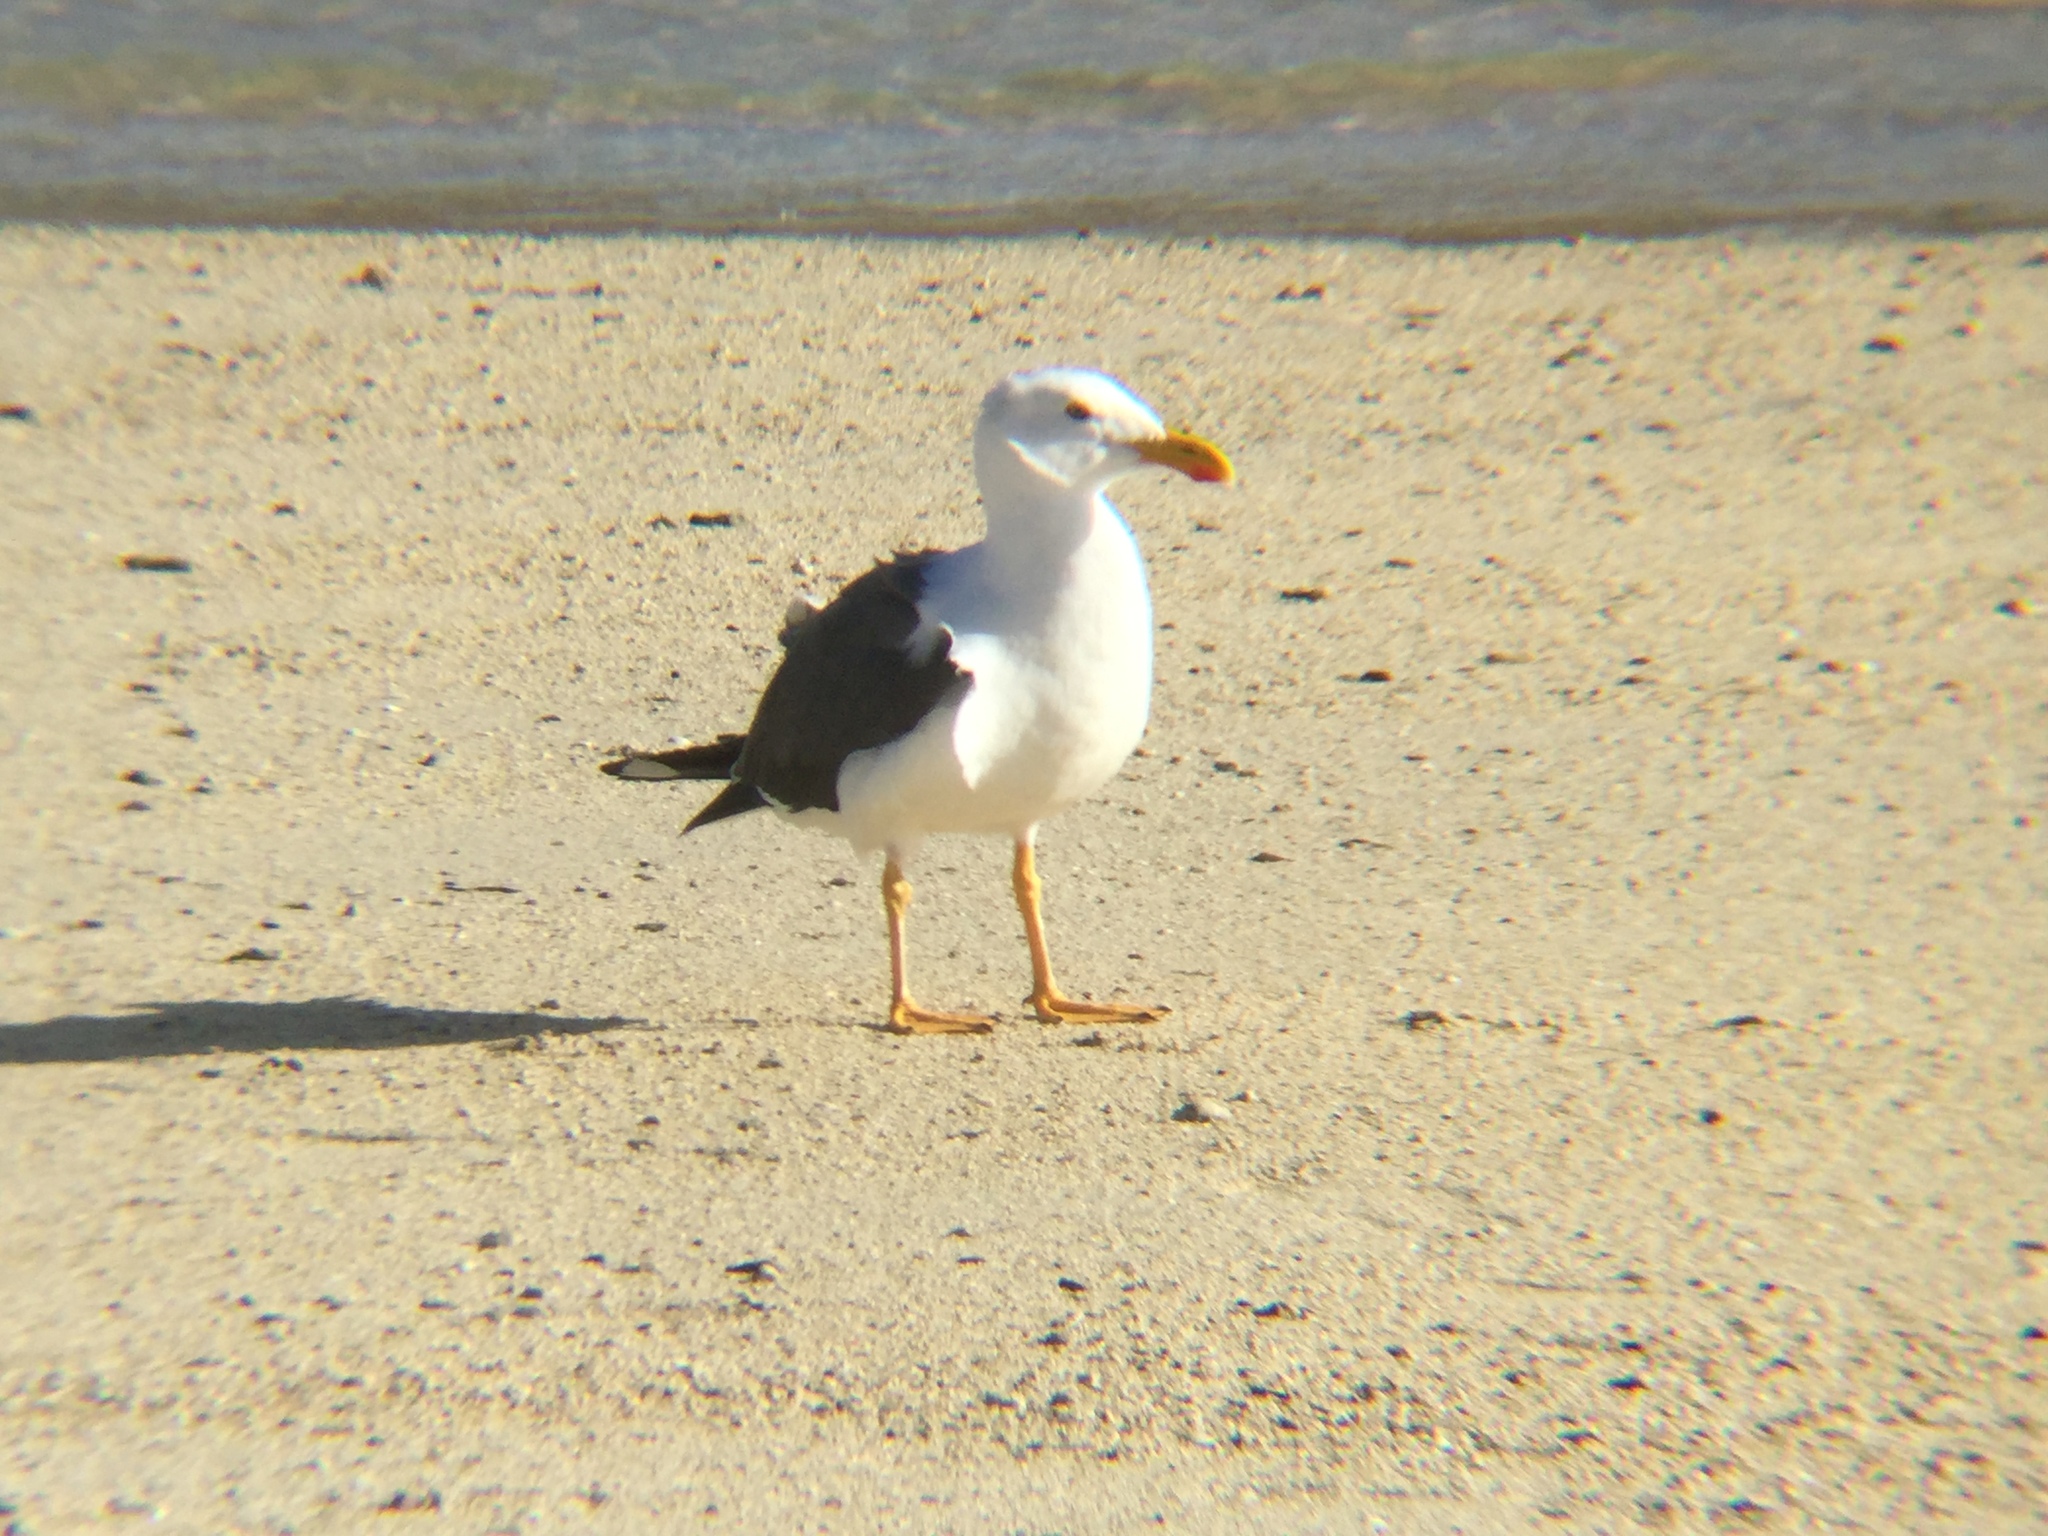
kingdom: Animalia
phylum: Chordata
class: Aves
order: Charadriiformes
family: Laridae
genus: Larus
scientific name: Larus livens
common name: Yellow-footed gull
